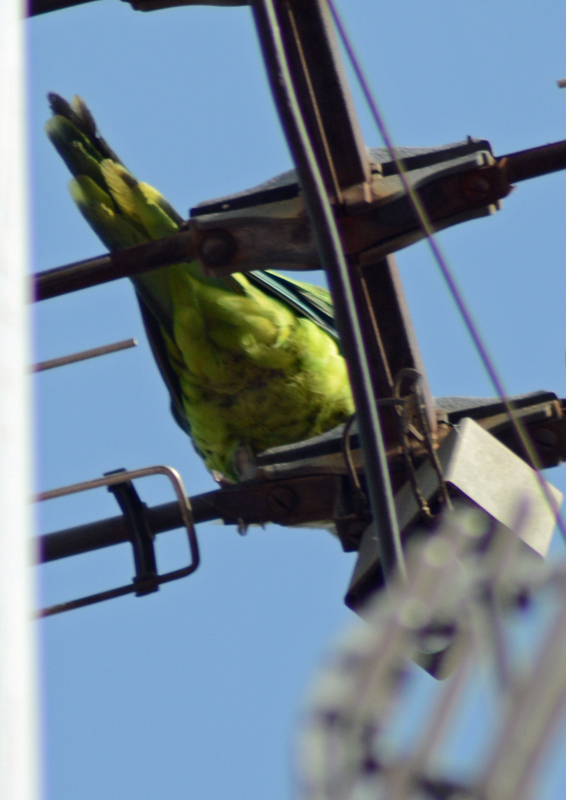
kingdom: Animalia
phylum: Chordata
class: Aves
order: Psittaciformes
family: Psittacidae
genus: Myiopsitta
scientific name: Myiopsitta monachus
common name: Monk parakeet
